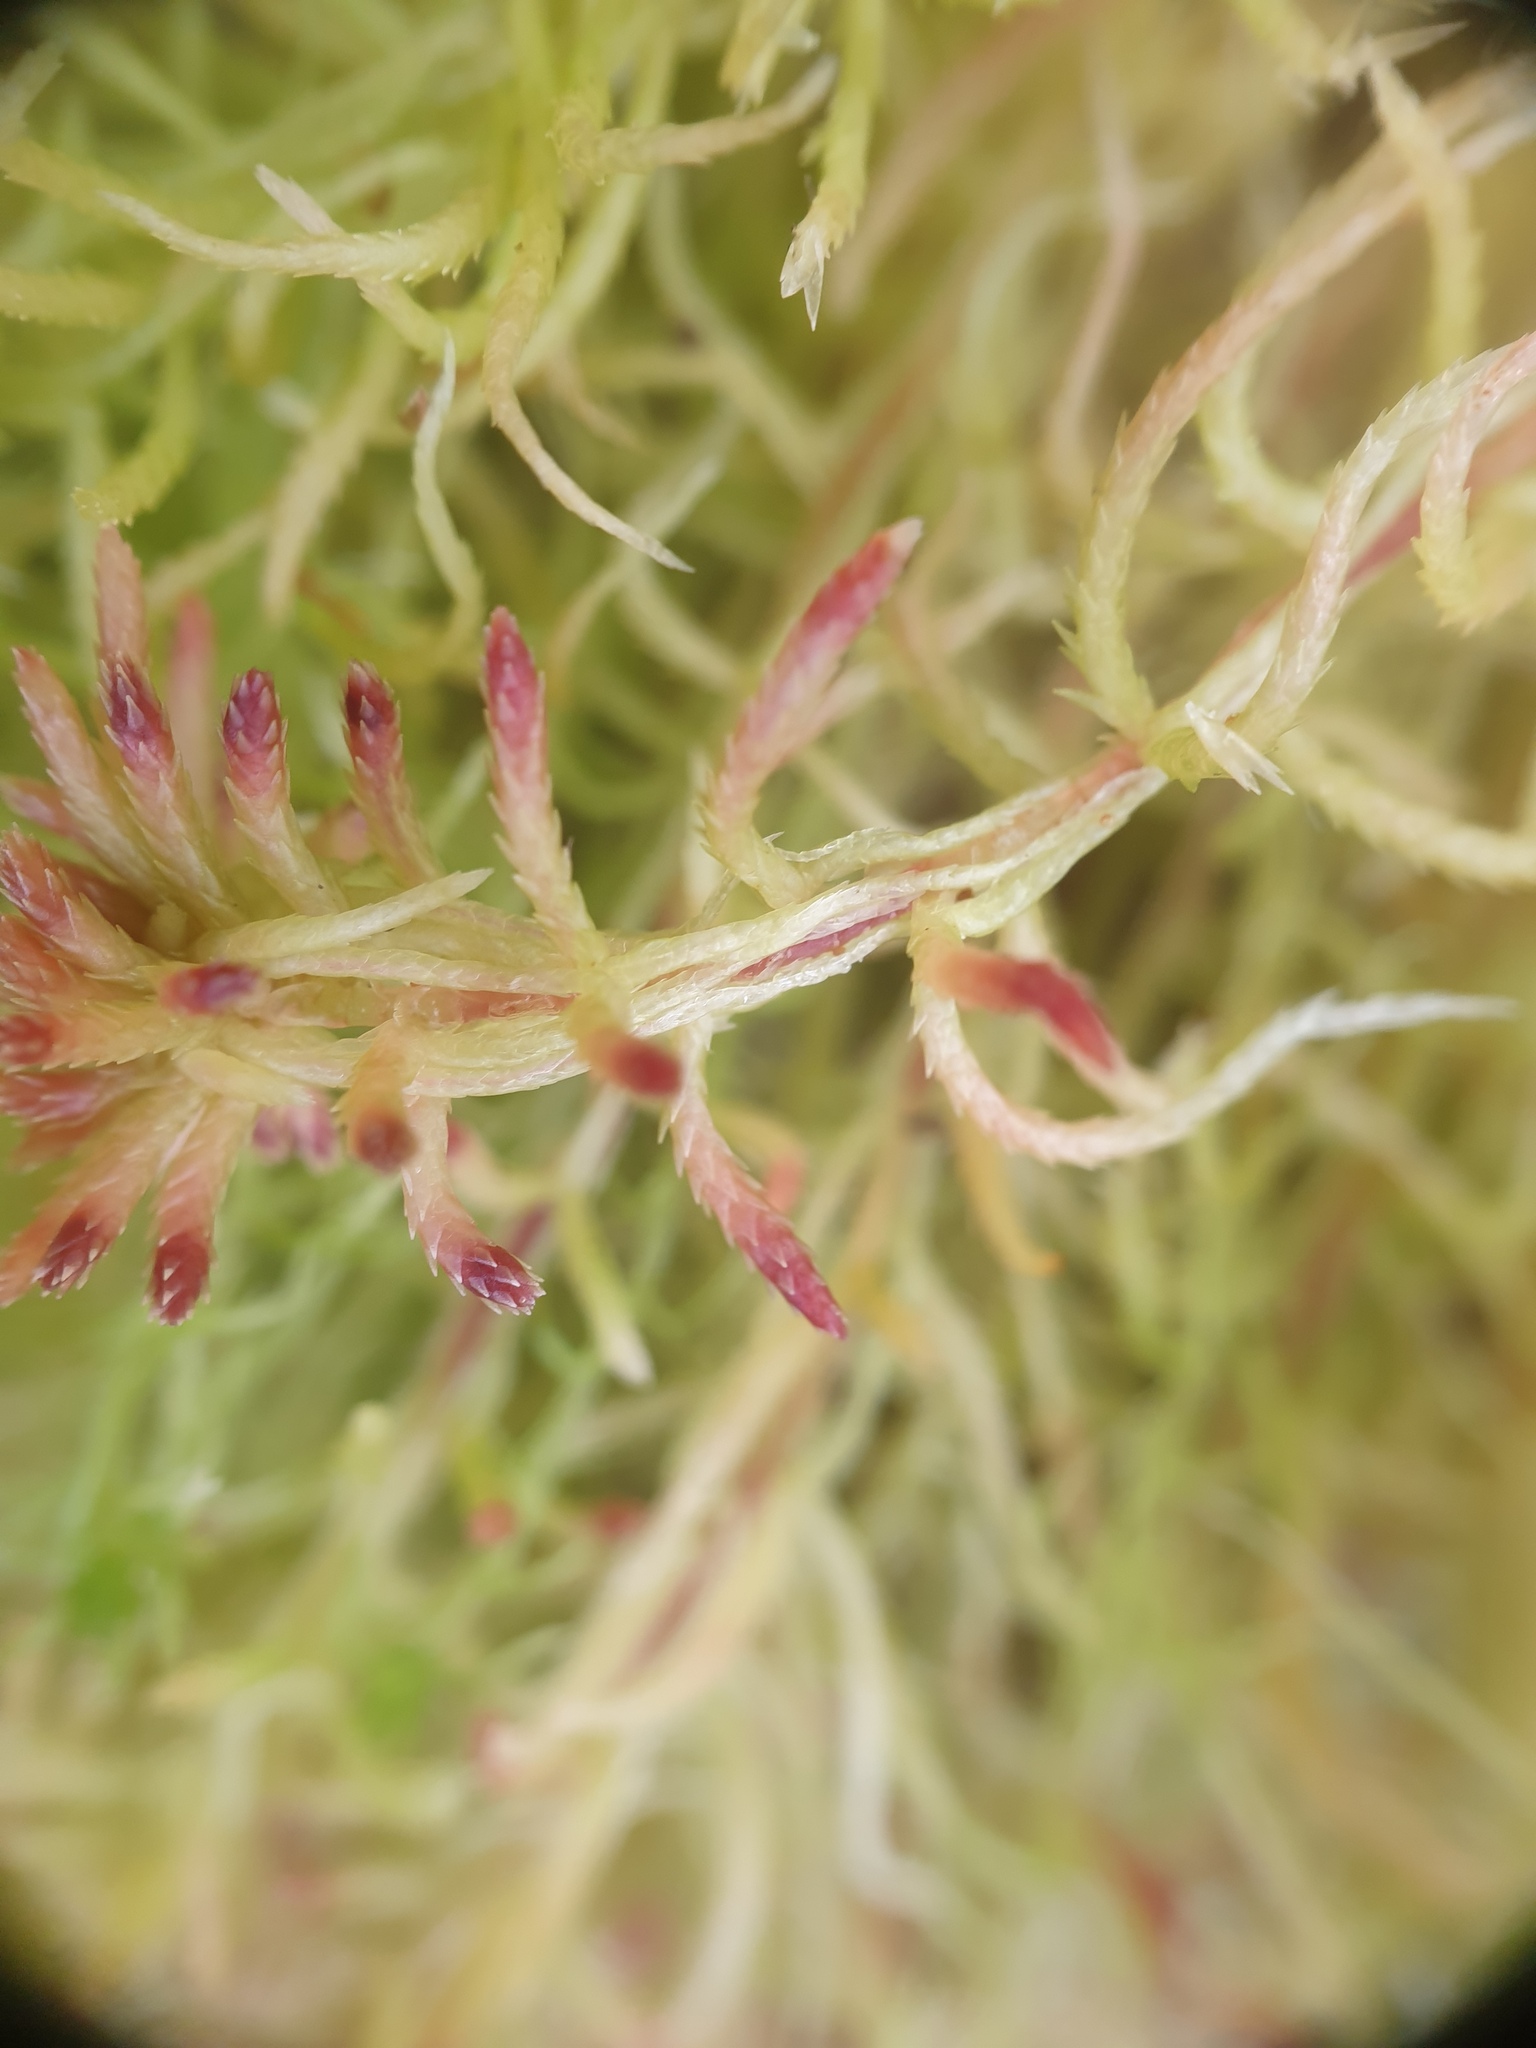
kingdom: Plantae
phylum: Bryophyta
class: Sphagnopsida
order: Sphagnales
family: Sphagnaceae
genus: Sphagnum
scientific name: Sphagnum russowii
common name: Russow's peat moss
